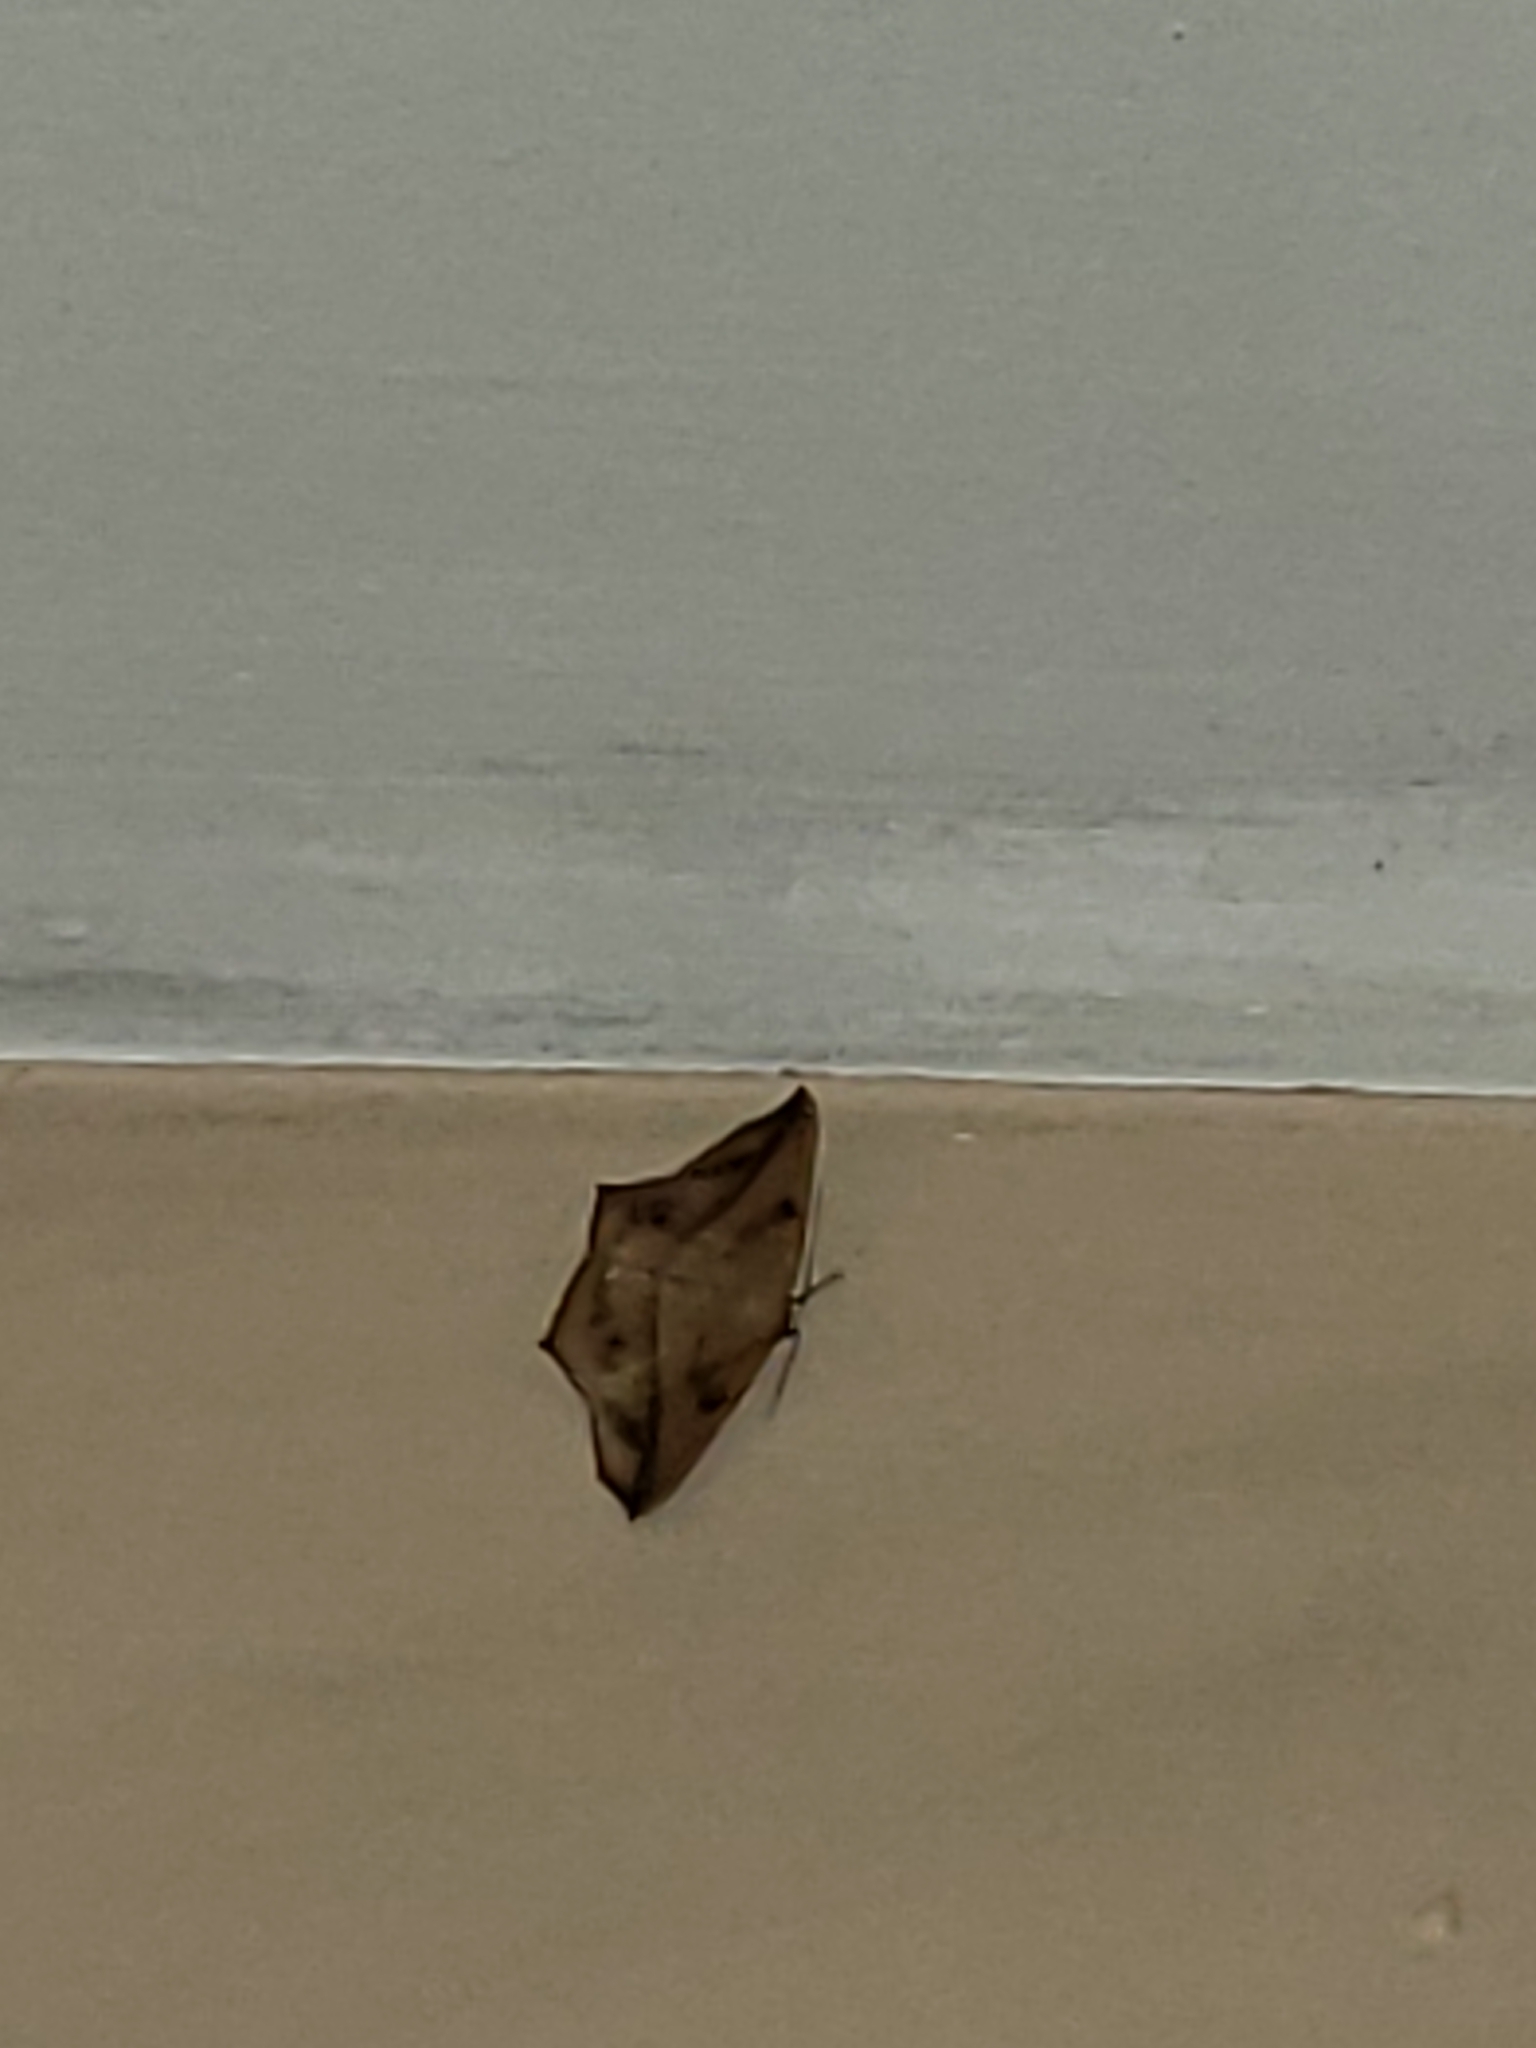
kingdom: Animalia
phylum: Arthropoda
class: Insecta
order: Lepidoptera
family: Geometridae
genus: Prochoerodes
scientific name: Prochoerodes lineola
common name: Large maple spanworm
